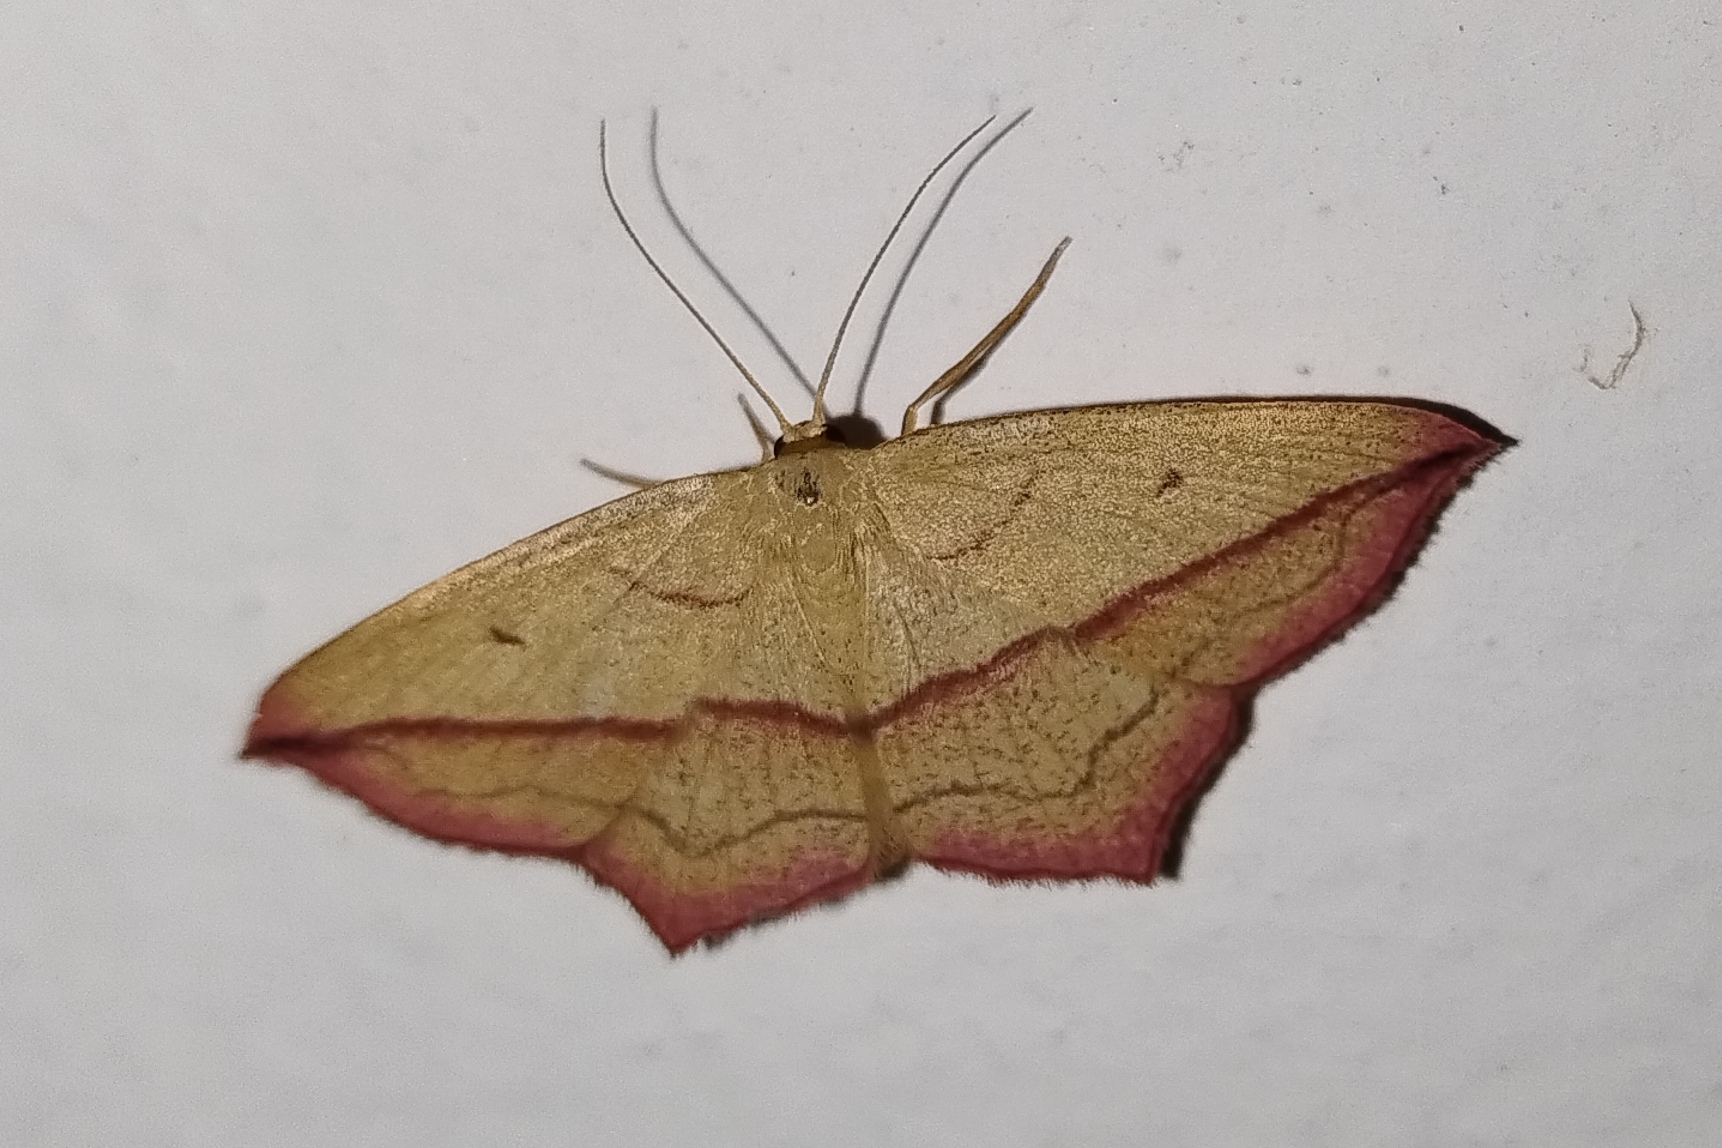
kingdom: Animalia
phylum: Arthropoda
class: Insecta
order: Lepidoptera
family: Geometridae
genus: Timandra
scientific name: Timandra comae
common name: Blood-vein
